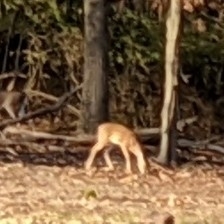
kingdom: Animalia
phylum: Chordata
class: Mammalia
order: Artiodactyla
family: Cervidae
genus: Odocoileus
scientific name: Odocoileus virginianus
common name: White-tailed deer
